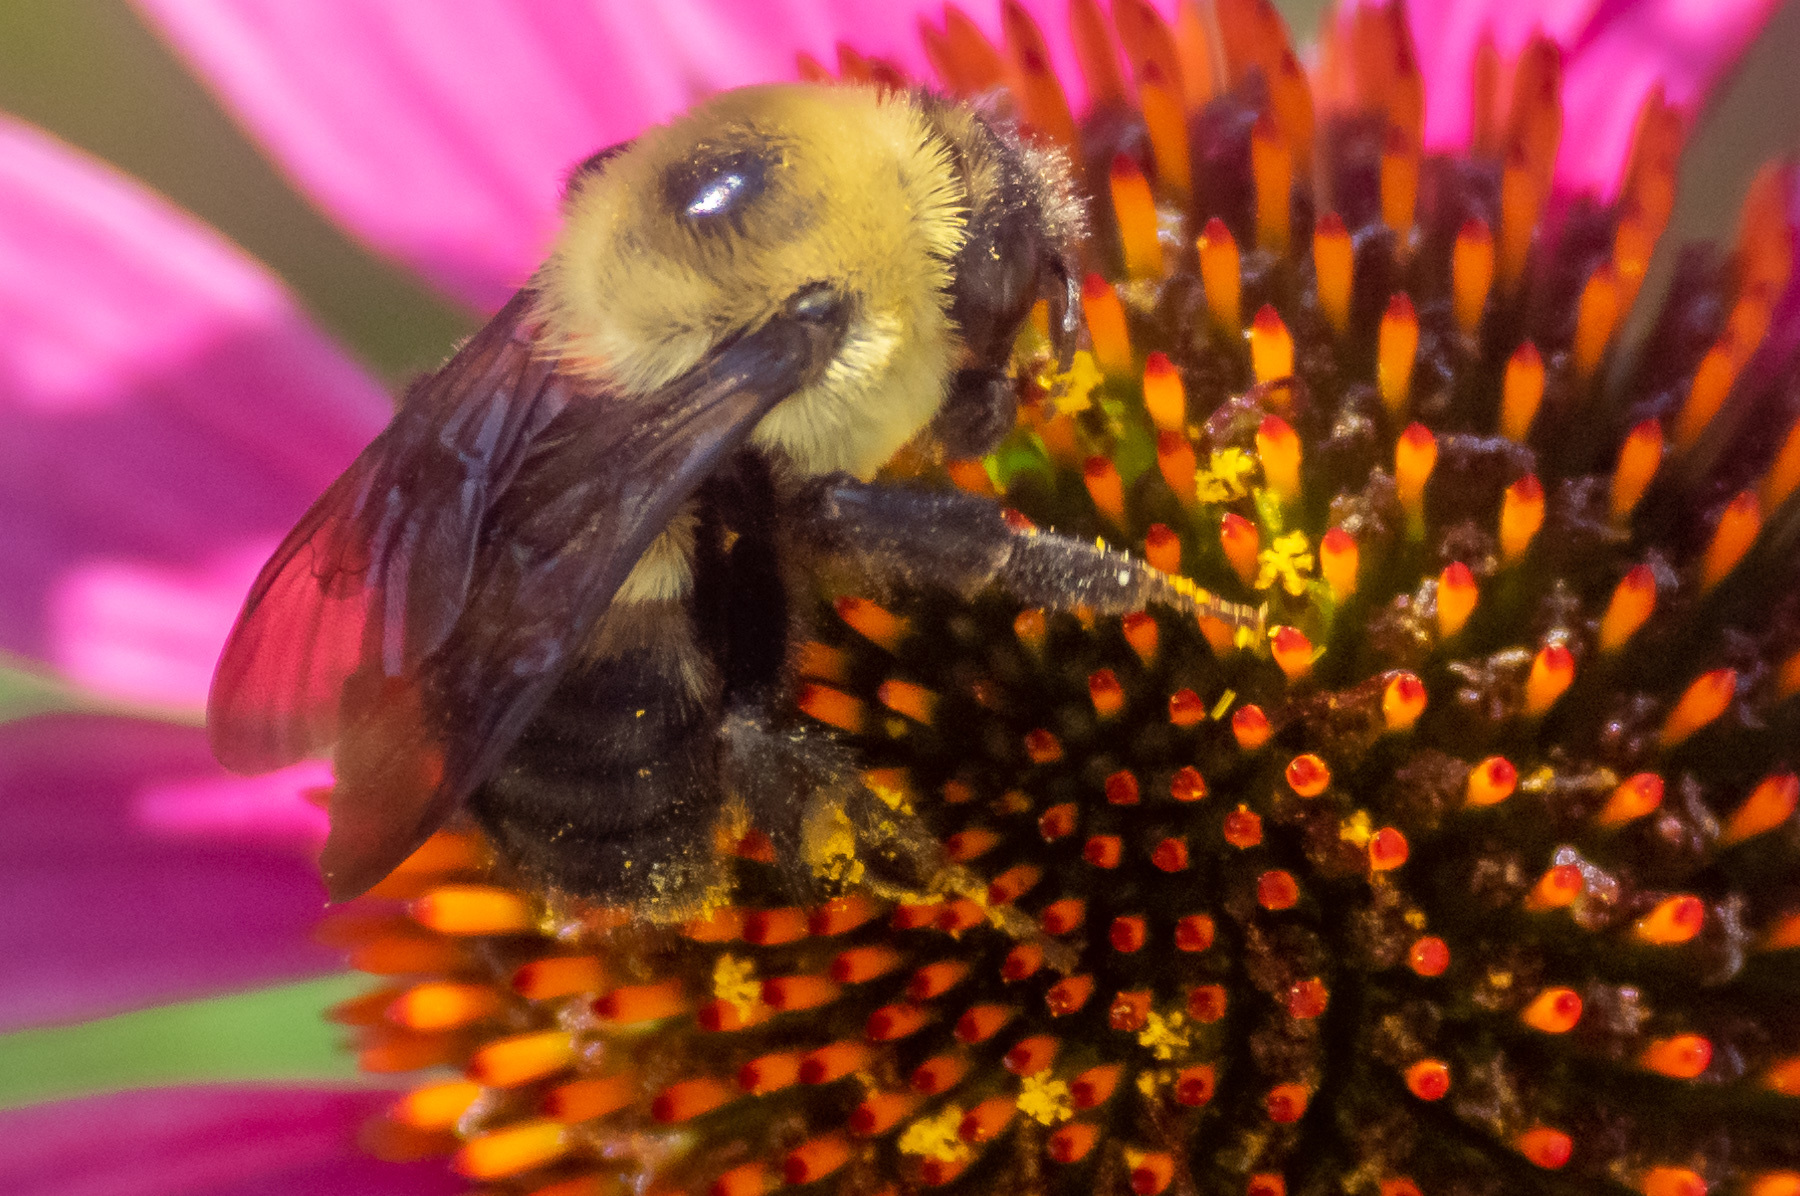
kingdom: Animalia
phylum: Arthropoda
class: Insecta
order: Hymenoptera
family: Apidae
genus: Bombus
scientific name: Bombus griseocollis
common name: Brown-belted bumble bee
